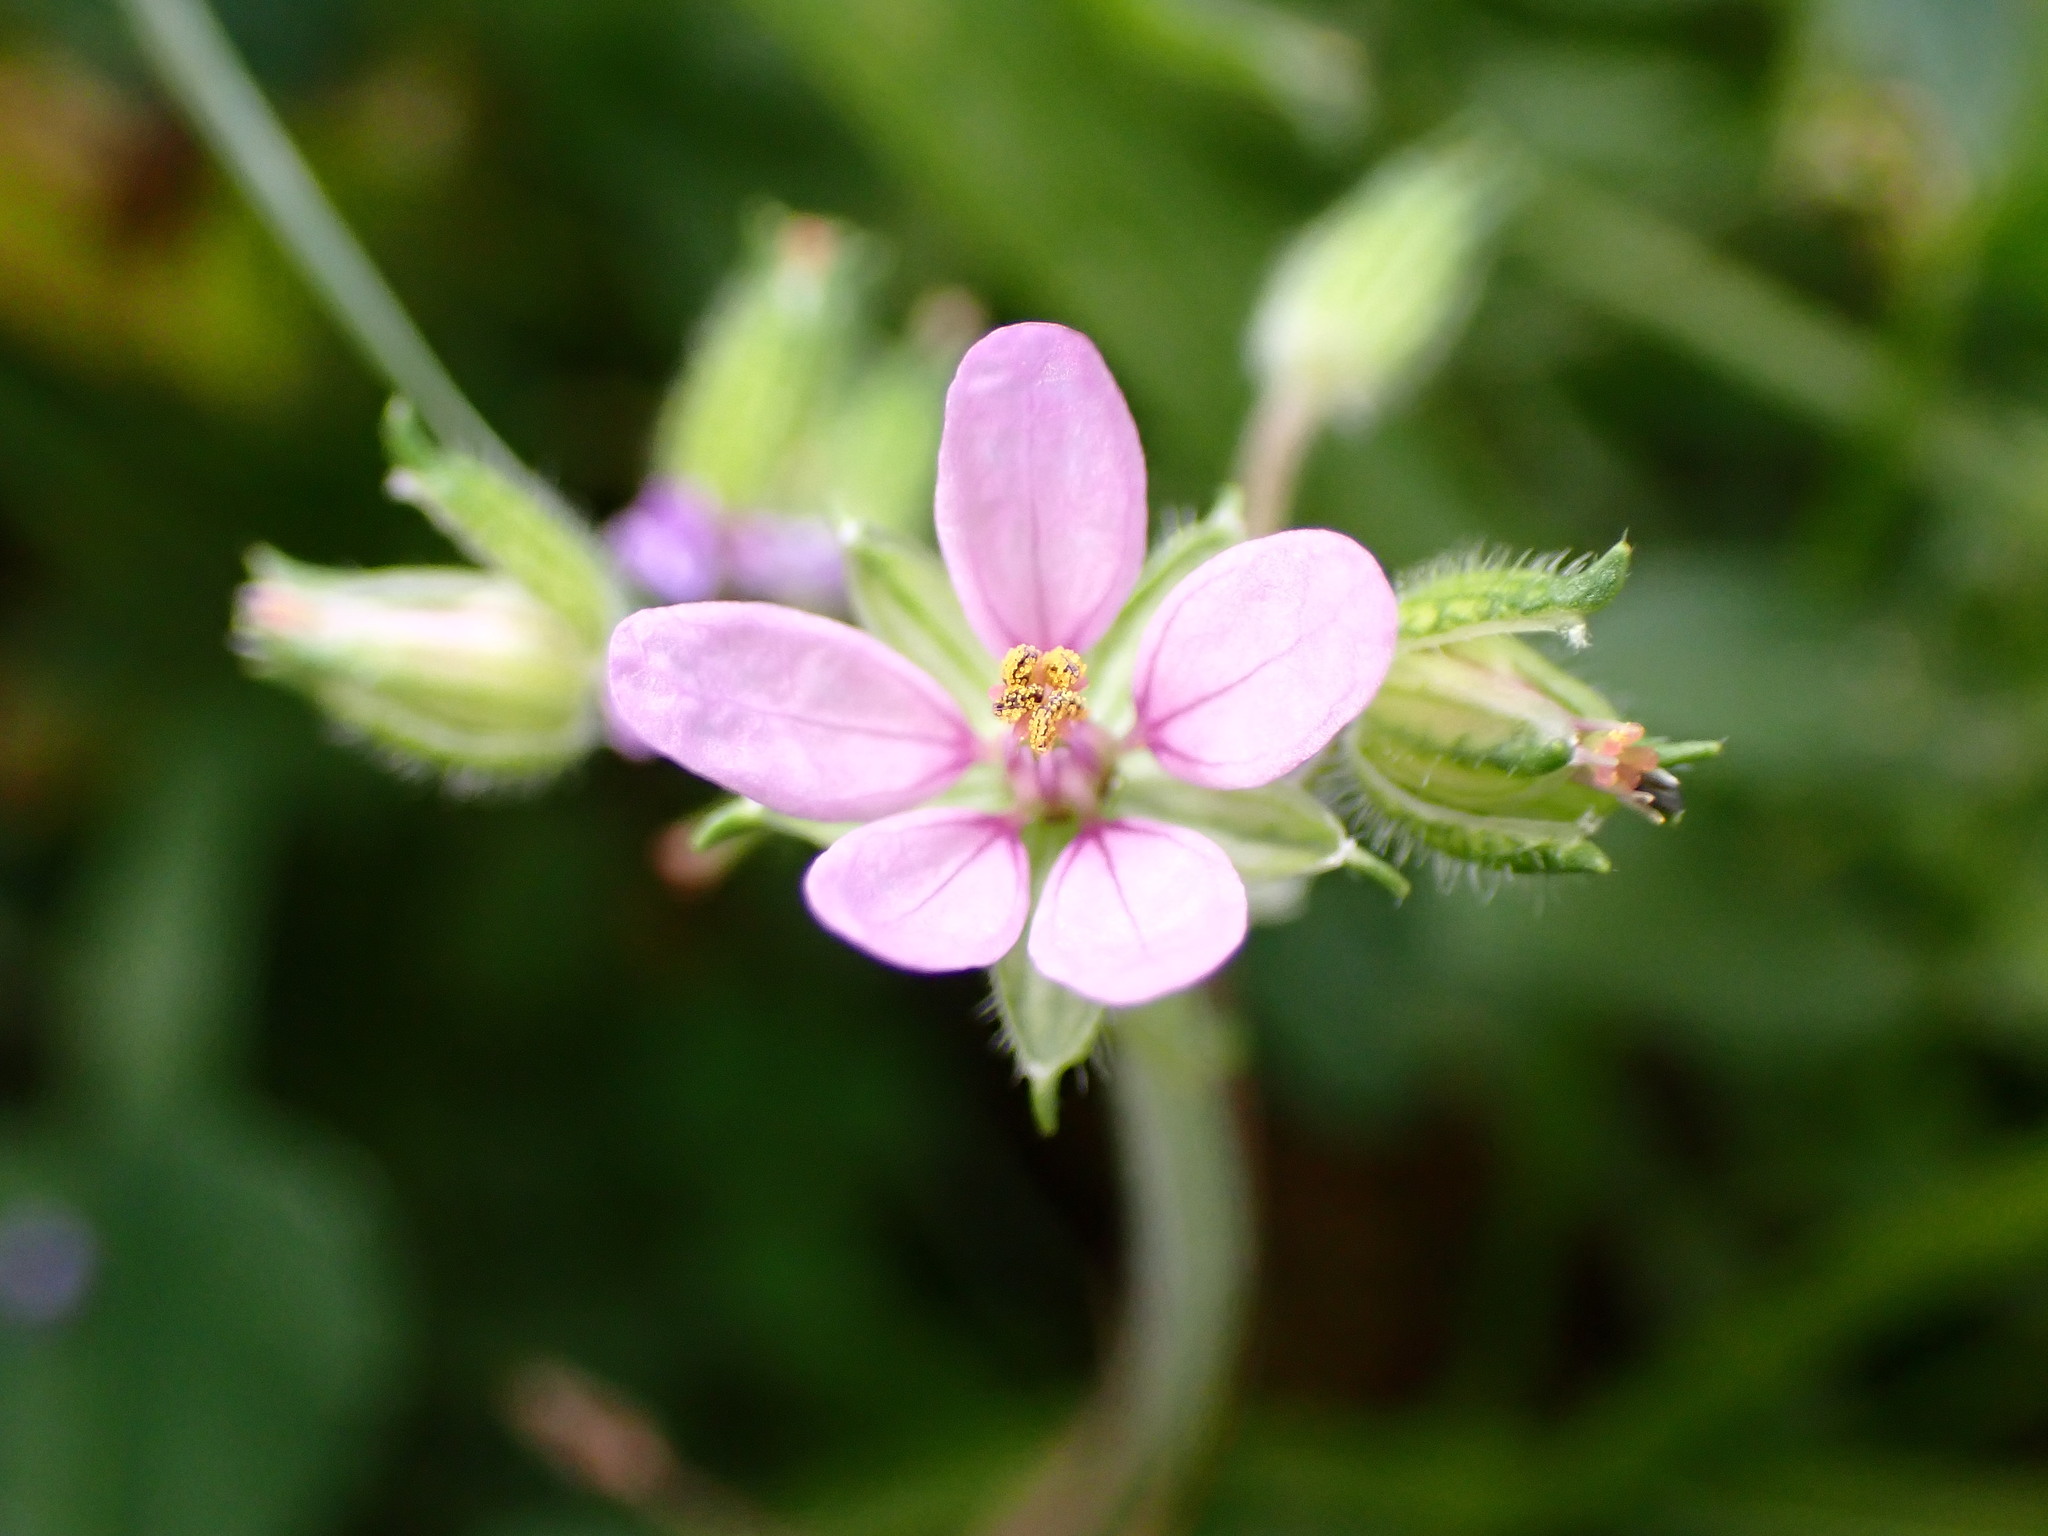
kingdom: Plantae
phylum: Tracheophyta
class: Magnoliopsida
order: Geraniales
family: Geraniaceae
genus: Erodium
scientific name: Erodium moschatum
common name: Musk stork's-bill
